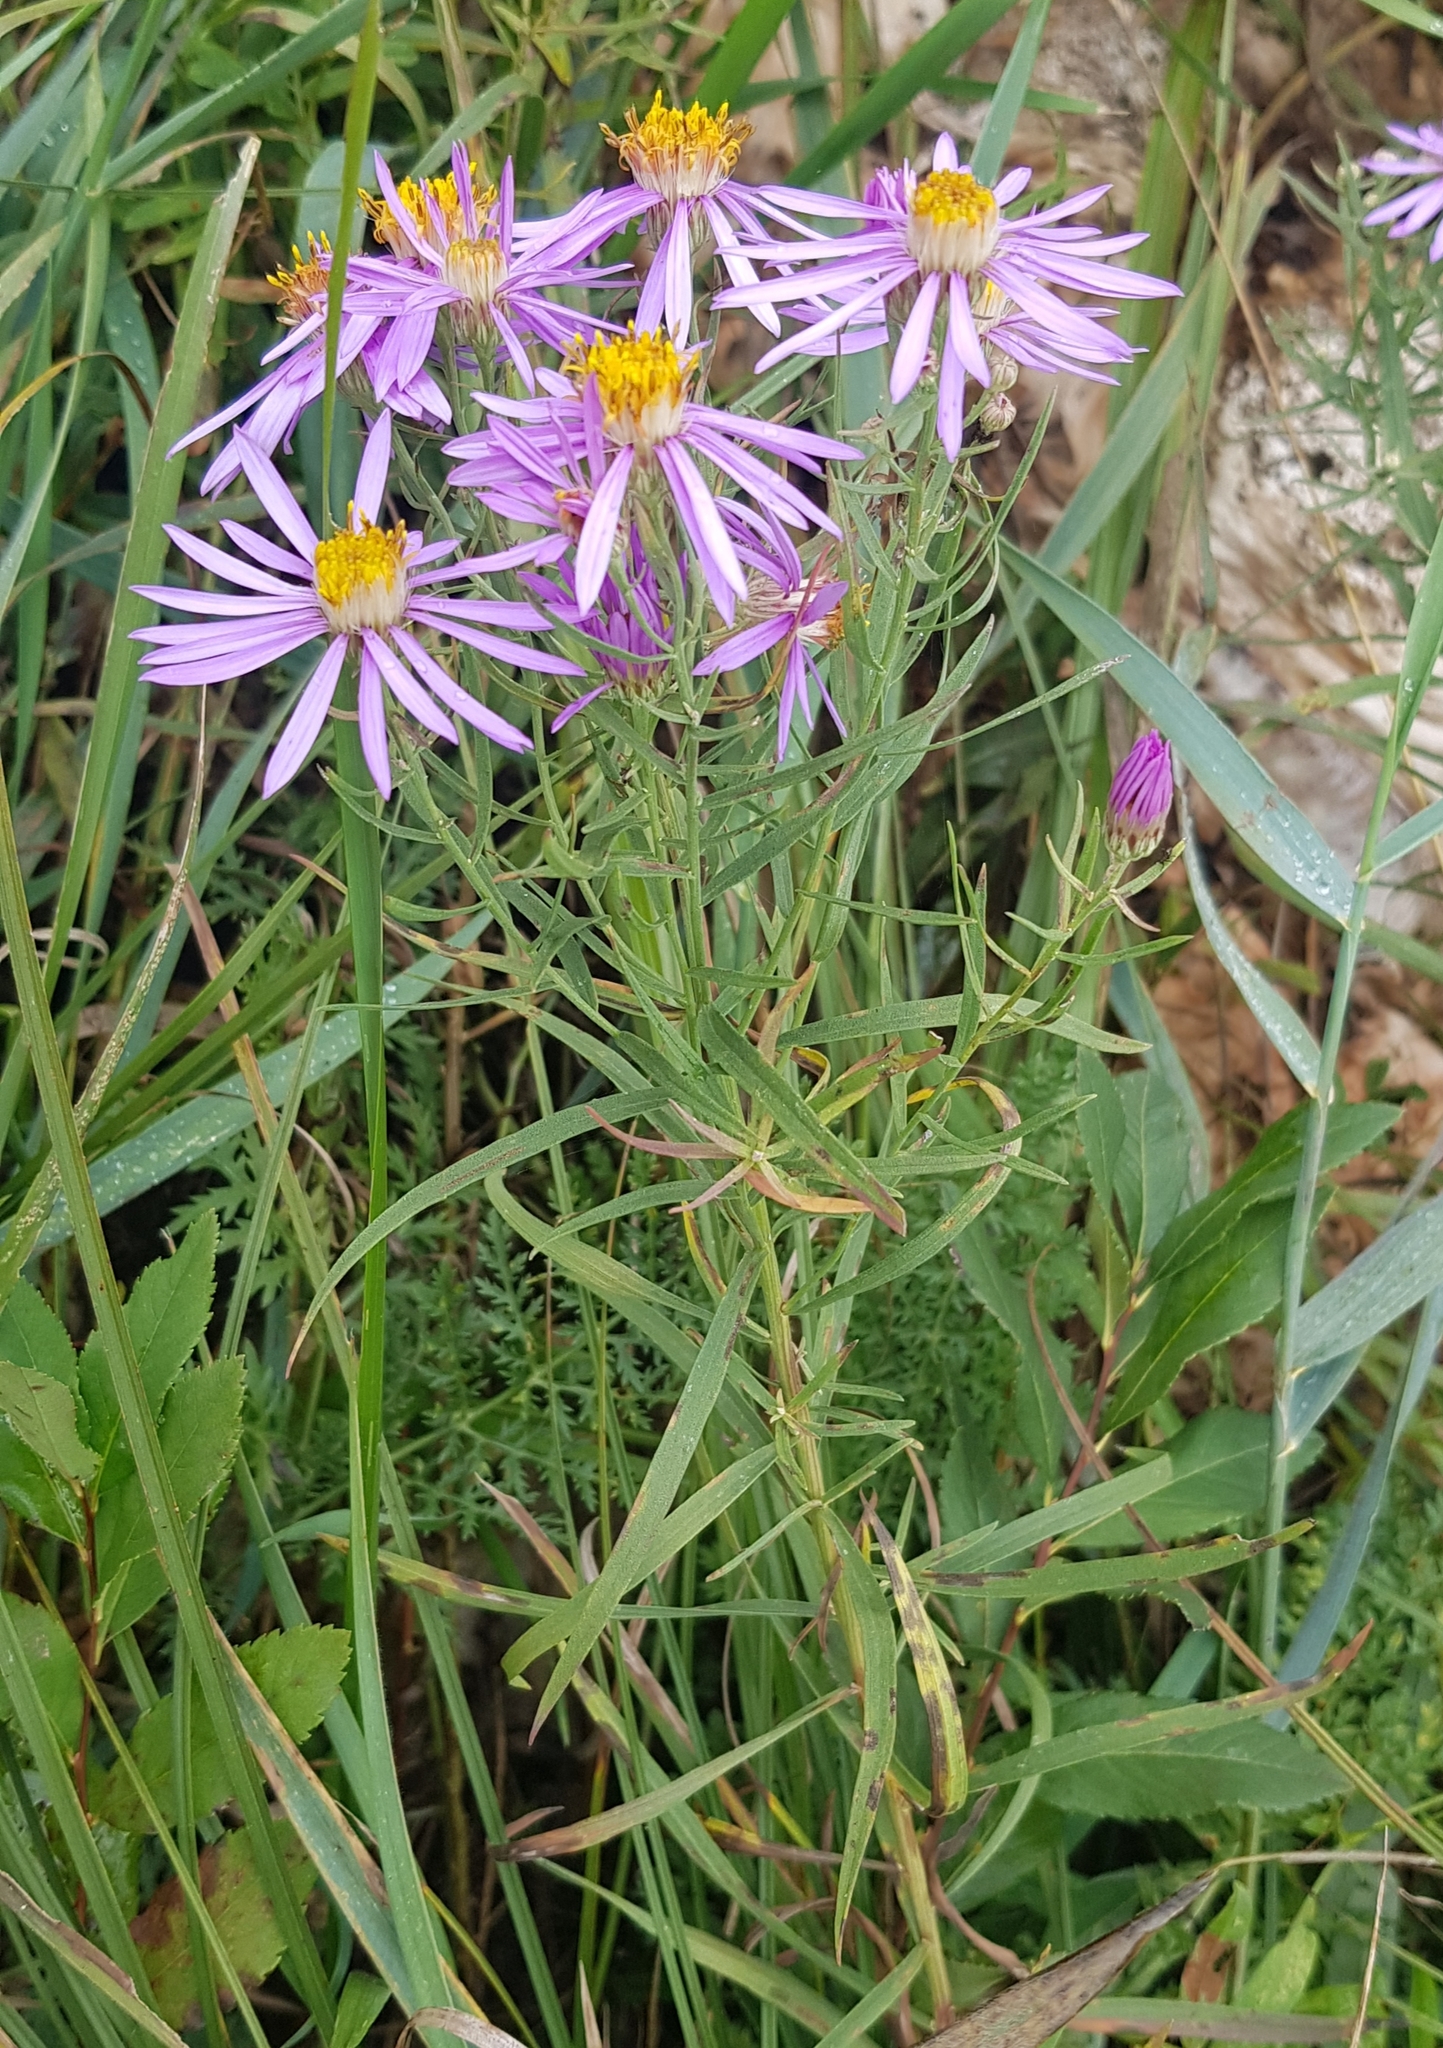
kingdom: Plantae
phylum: Tracheophyta
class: Magnoliopsida
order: Rosales
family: Rosaceae
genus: Spiraea
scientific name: Spiraea salicifolia
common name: Bridewort
